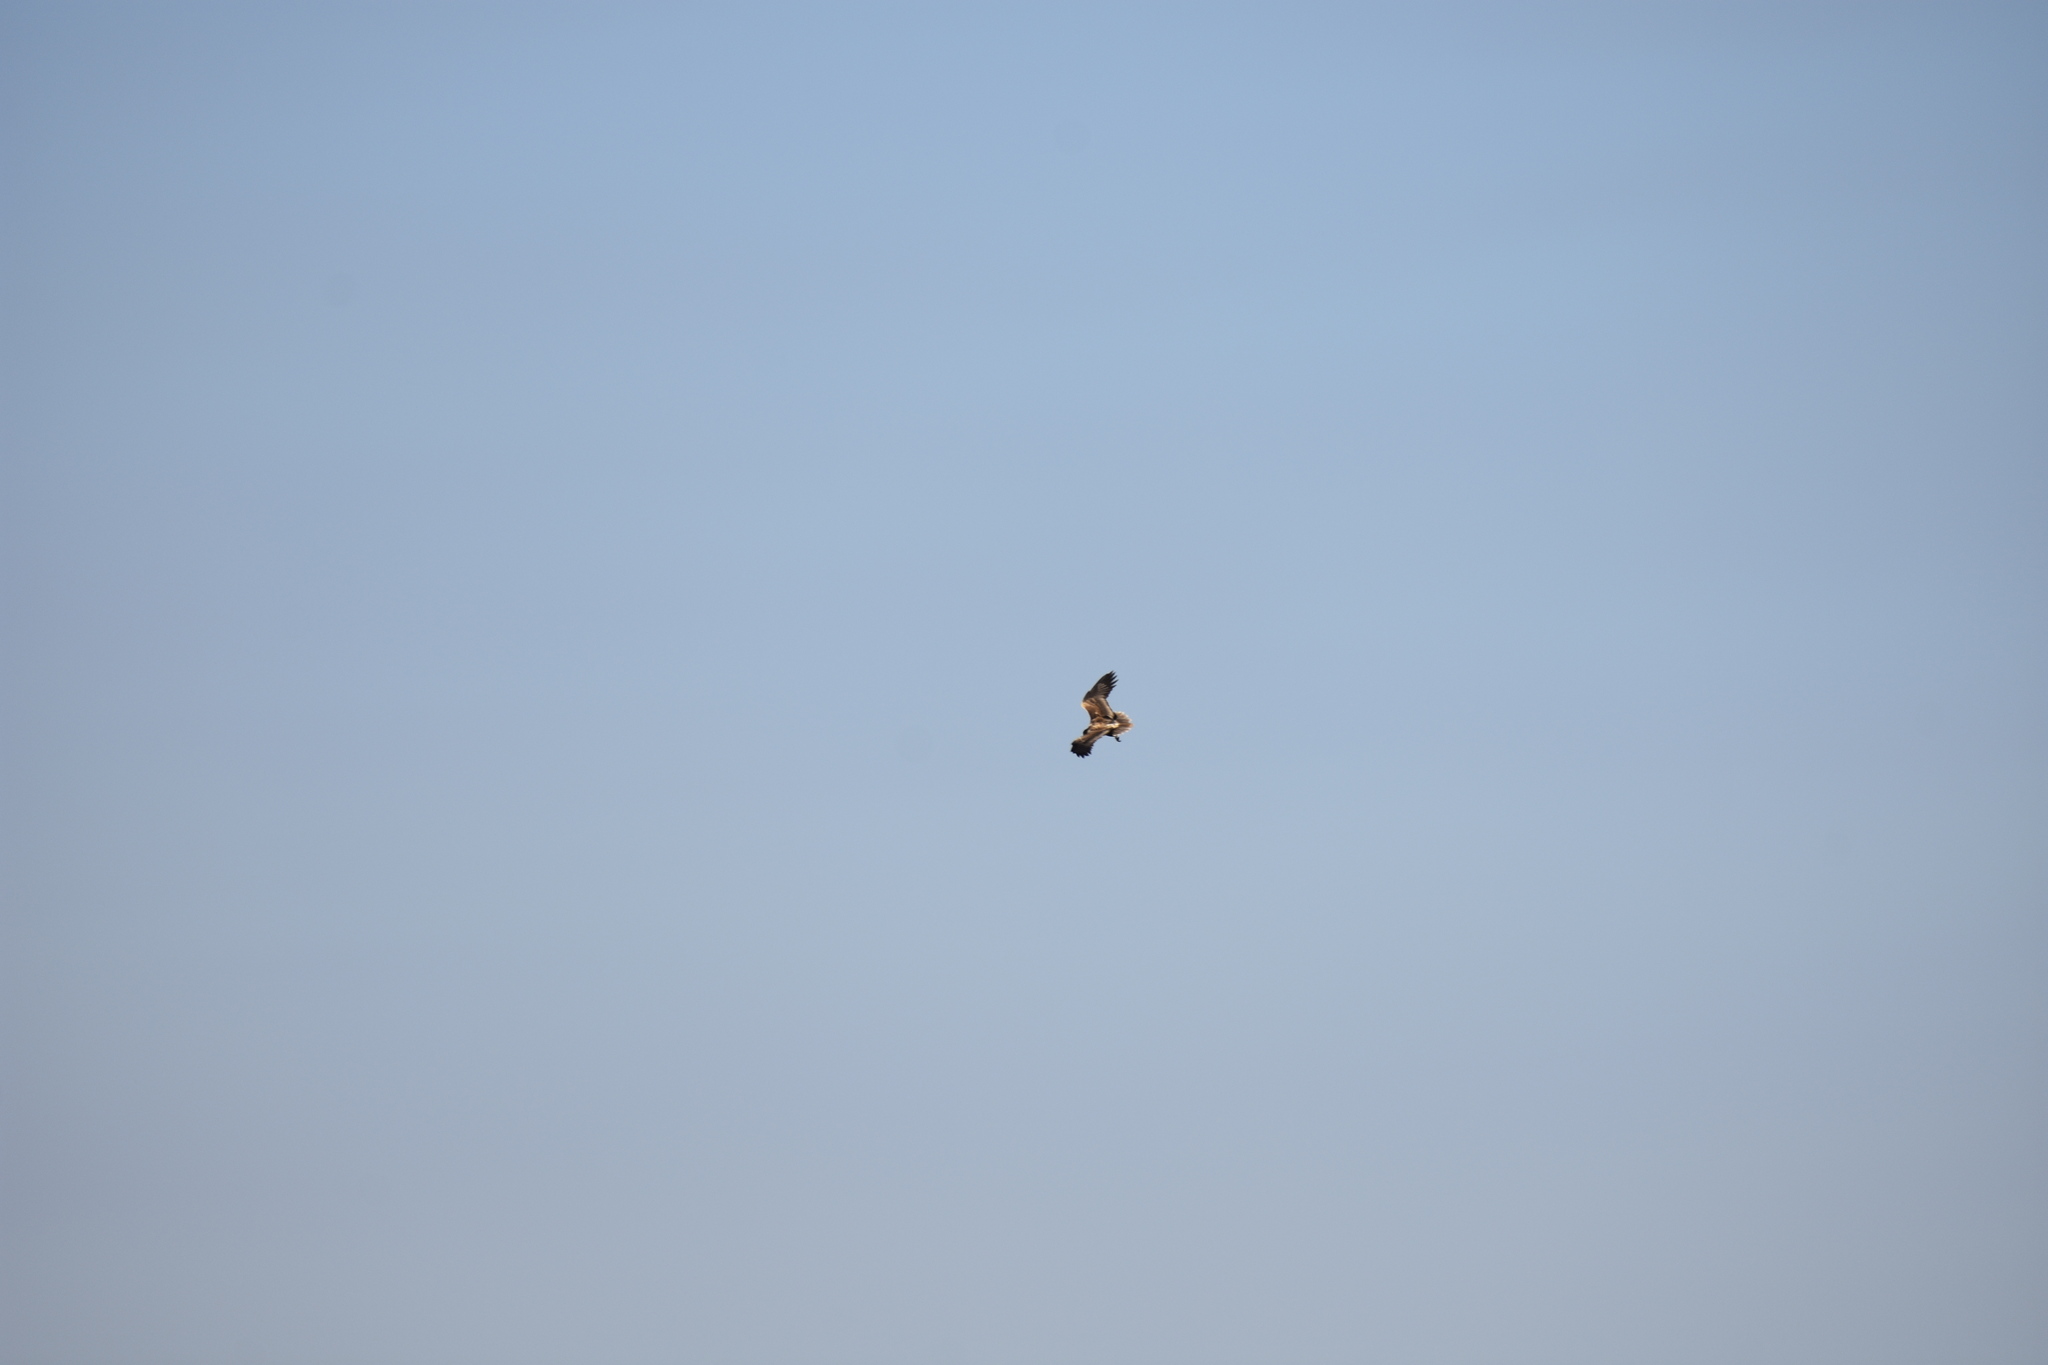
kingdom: Animalia
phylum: Chordata
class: Aves
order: Accipitriformes
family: Accipitridae
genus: Neophron
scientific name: Neophron percnopterus
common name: Egyptian vulture
